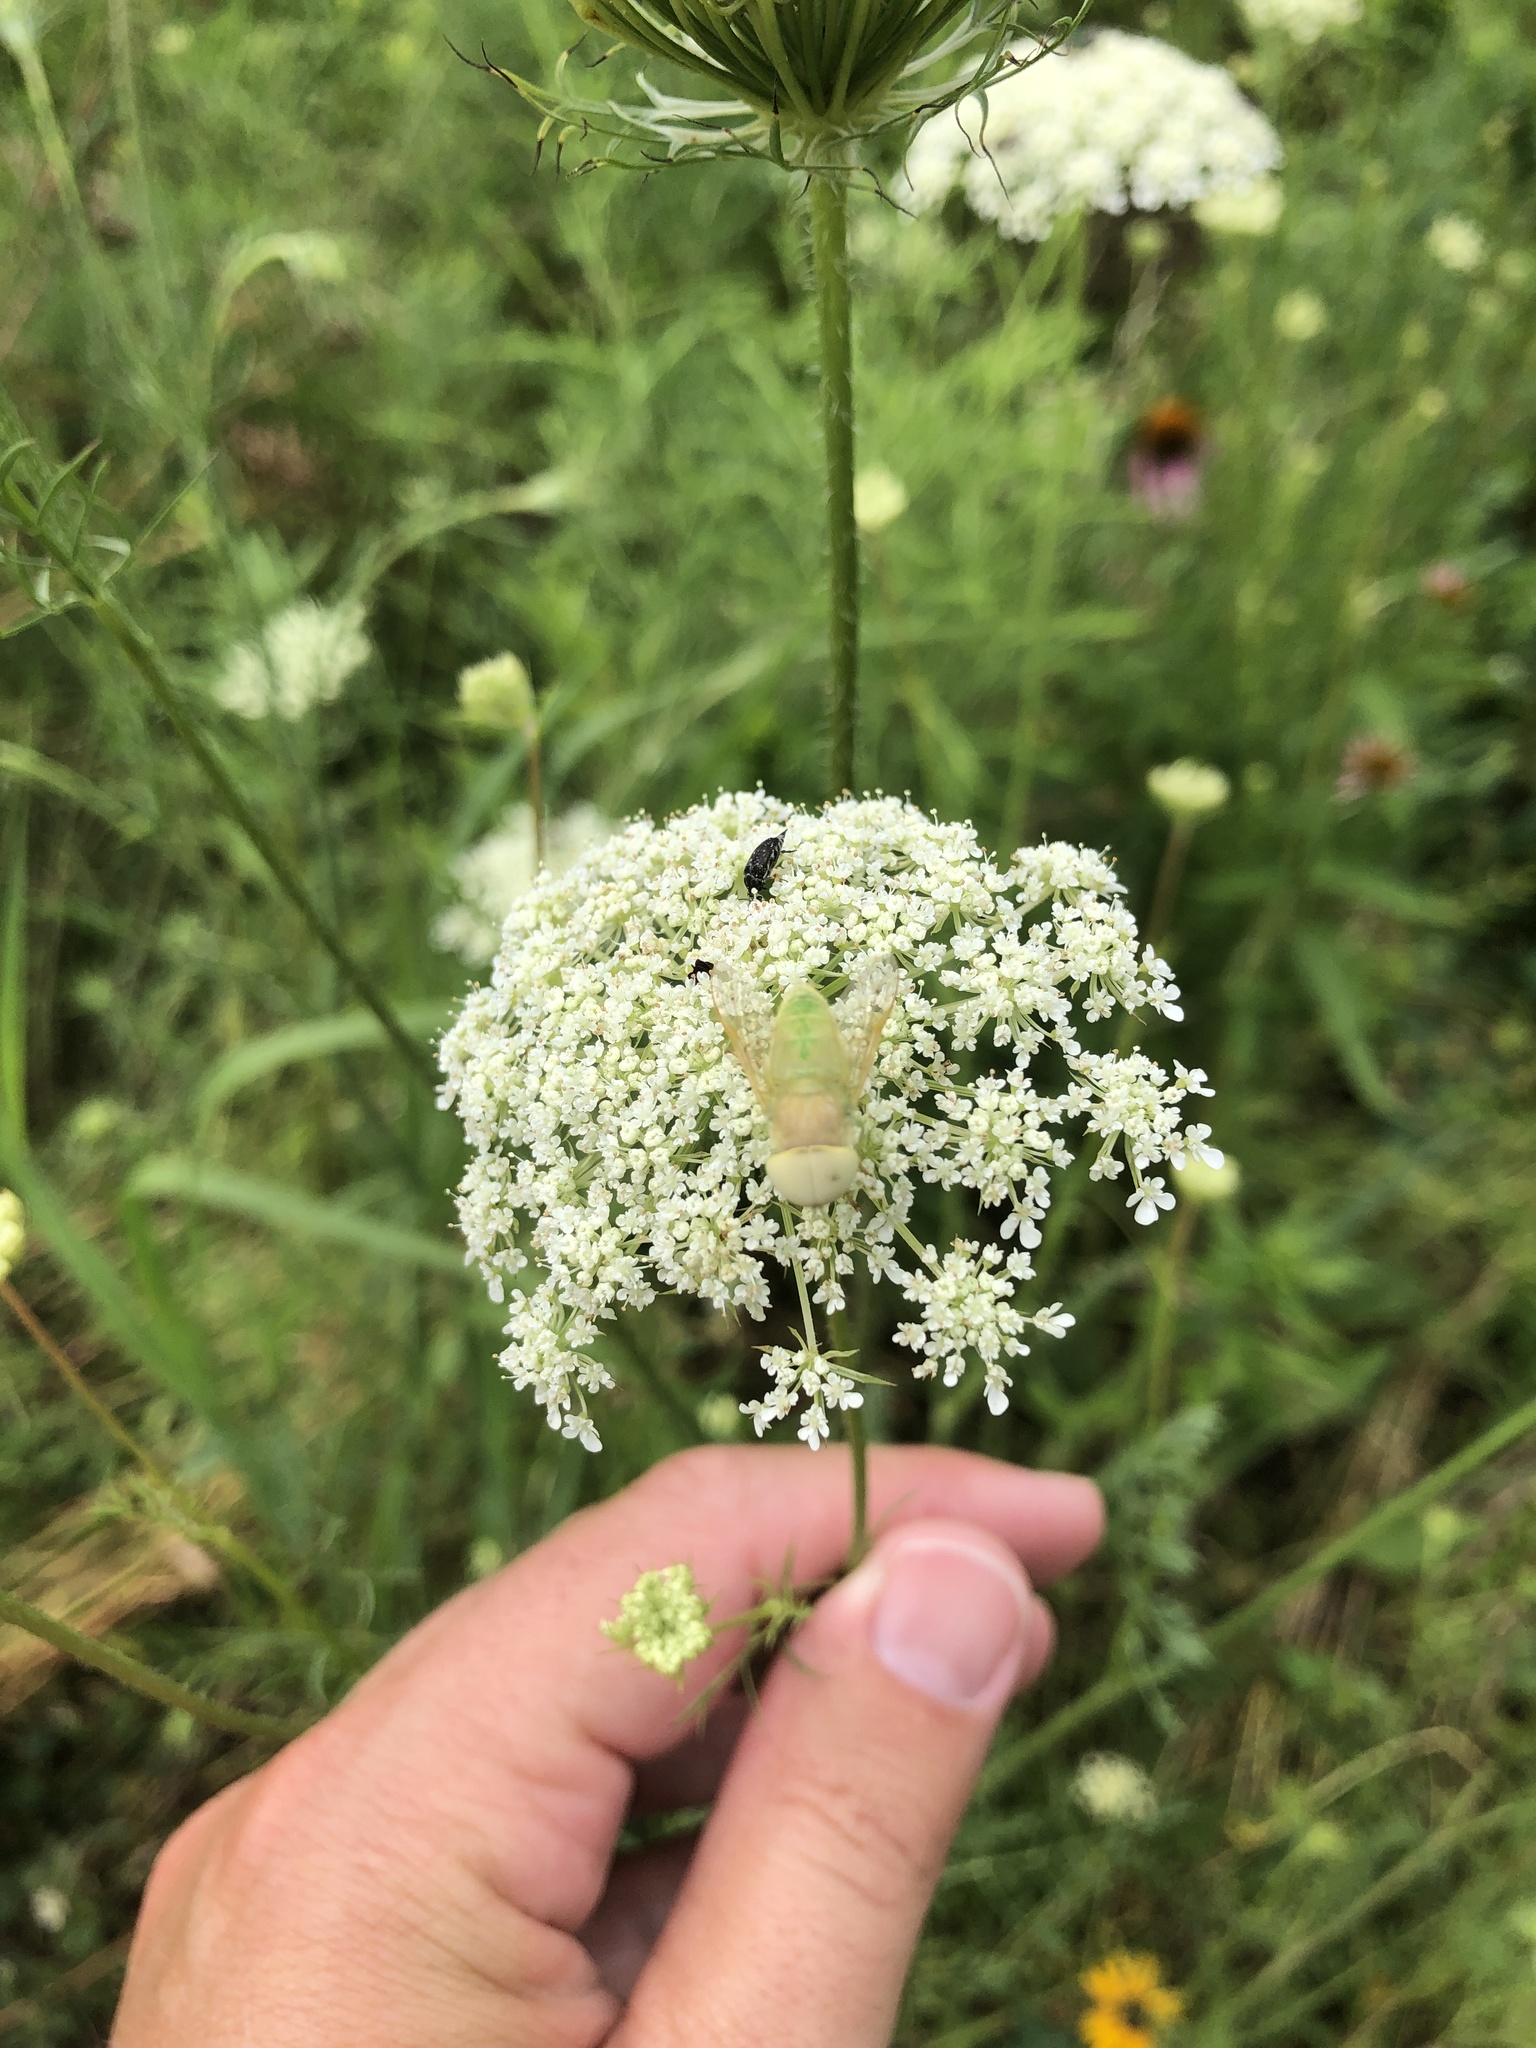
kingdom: Animalia
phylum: Arthropoda
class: Insecta
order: Diptera
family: Tabanidae
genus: Chlorotabanus
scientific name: Chlorotabanus crepuscularis
